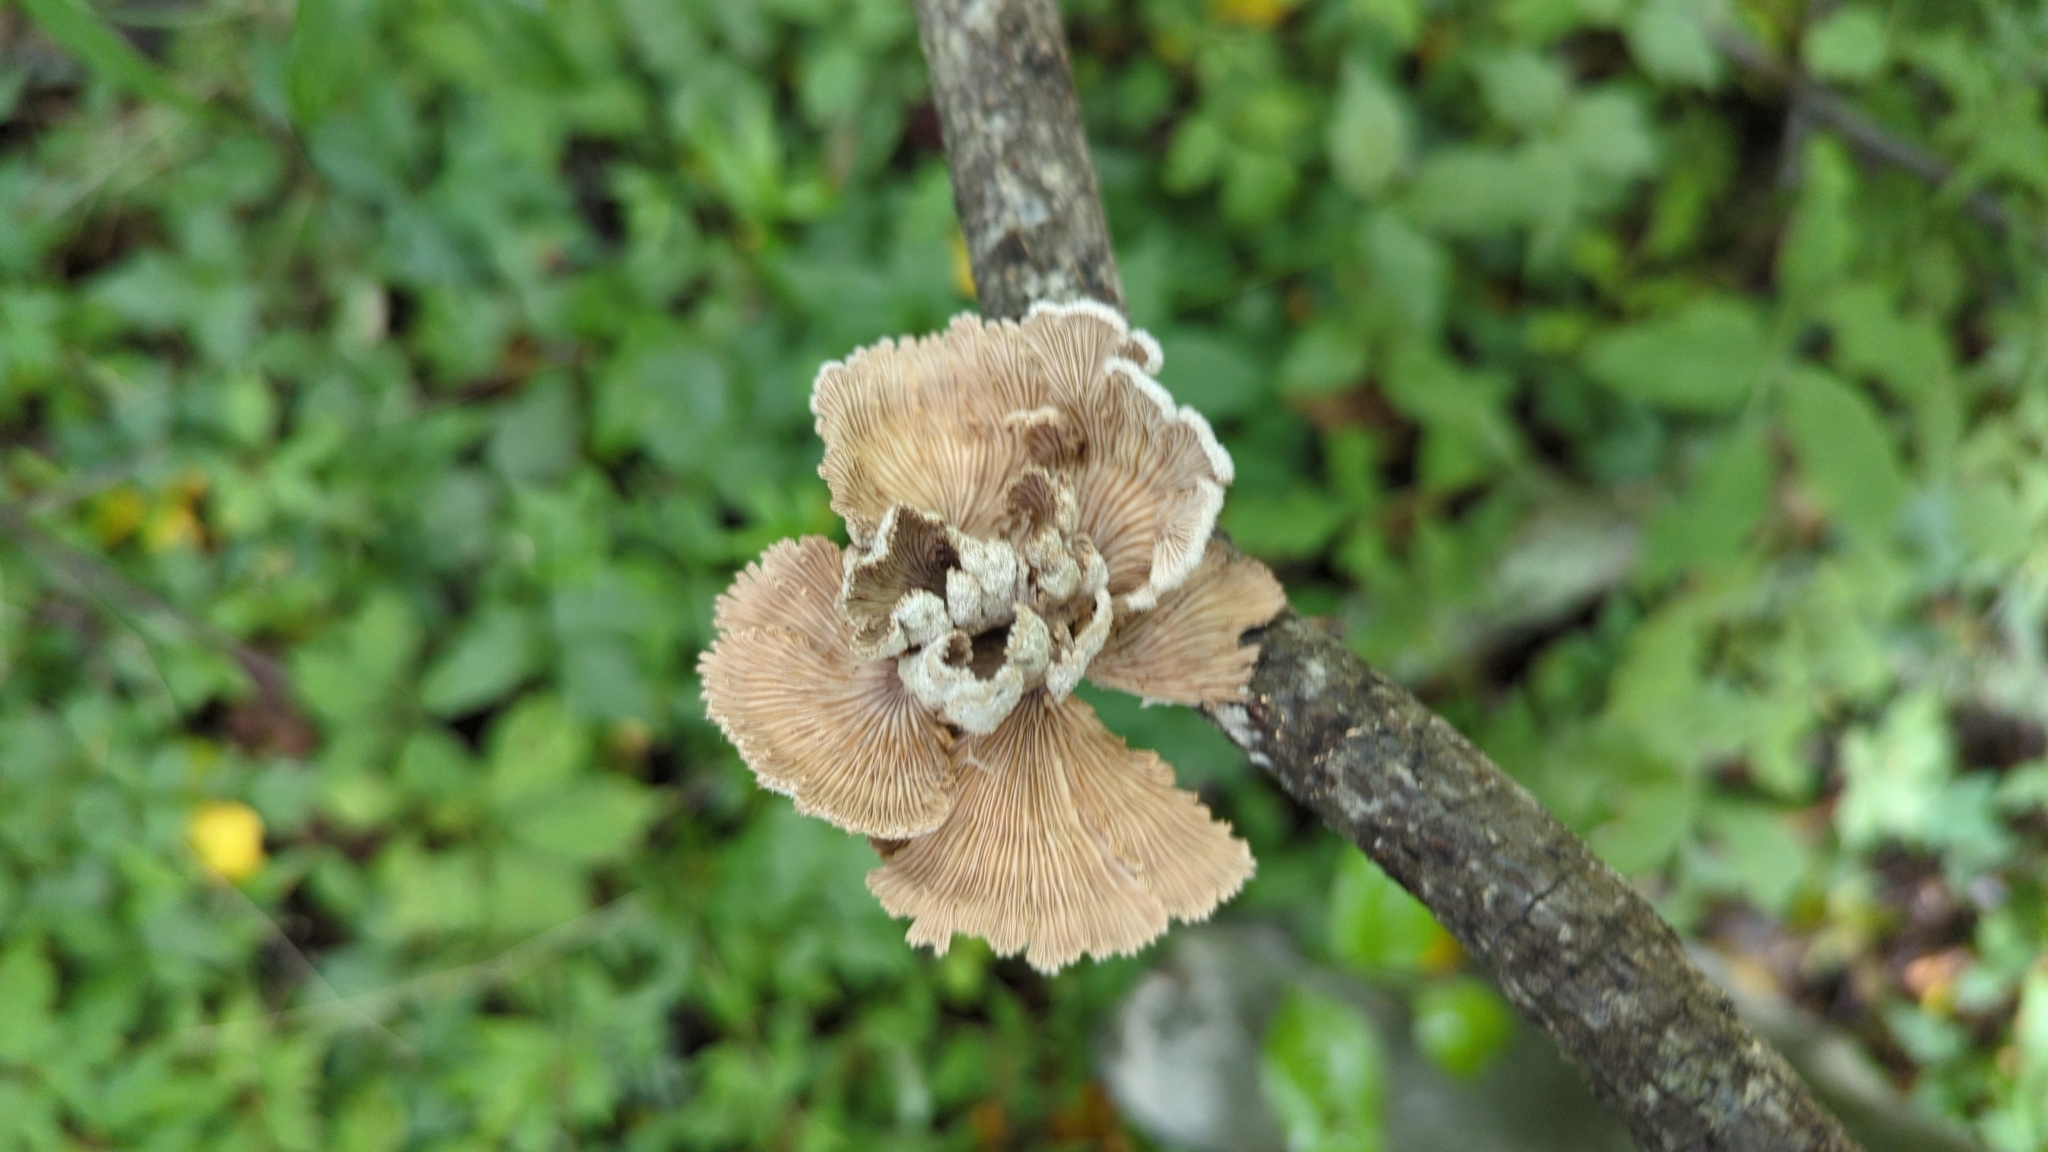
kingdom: Fungi
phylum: Basidiomycota
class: Agaricomycetes
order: Agaricales
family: Schizophyllaceae
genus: Schizophyllum
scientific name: Schizophyllum commune
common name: Common porecrust
